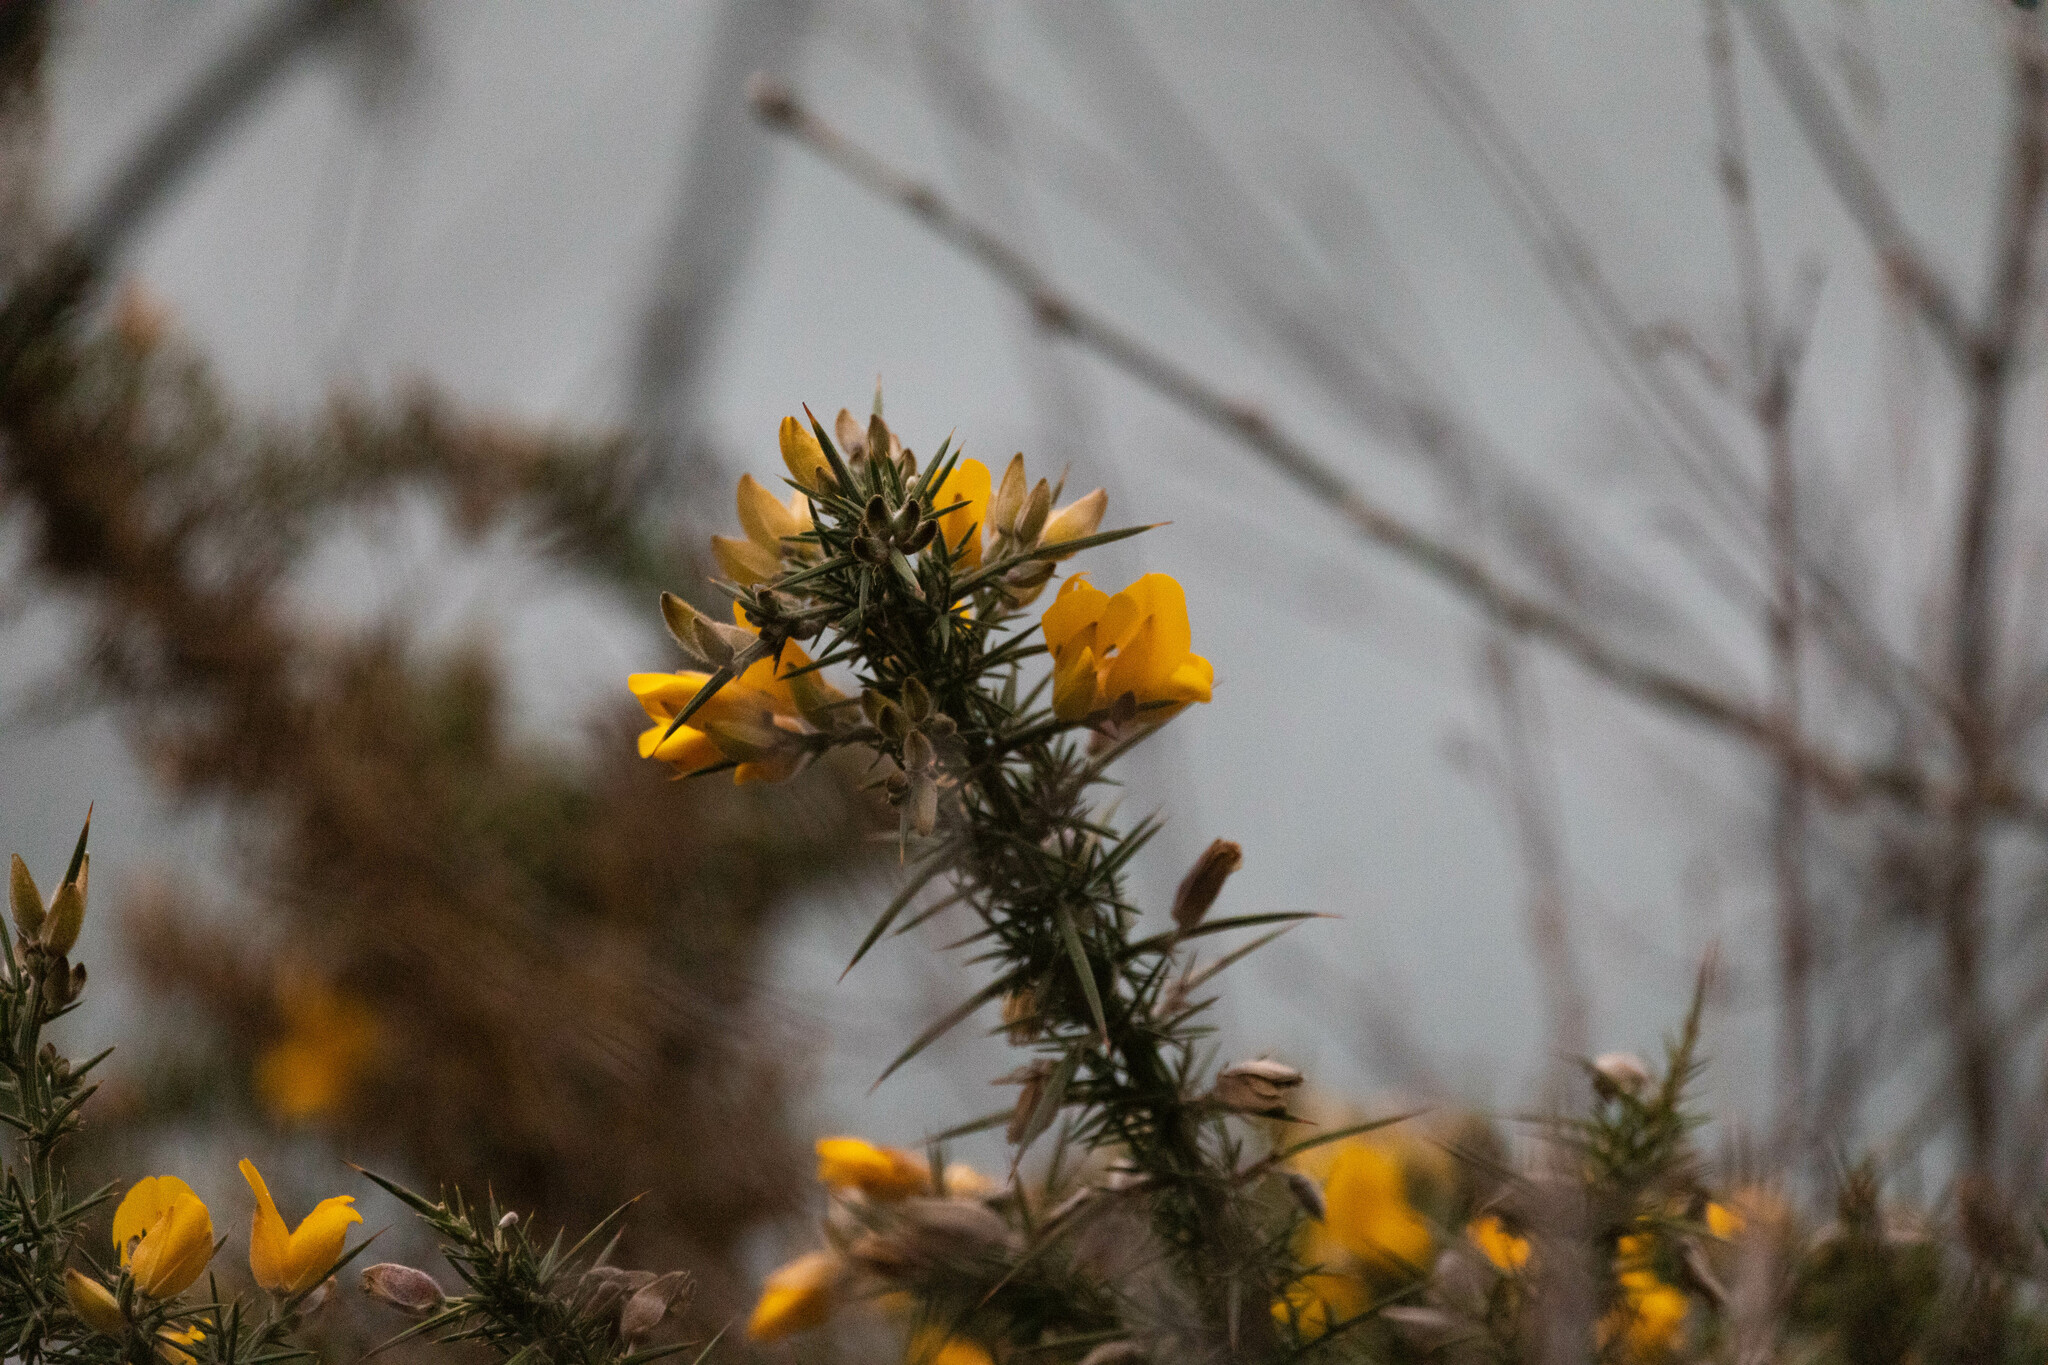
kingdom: Plantae
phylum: Tracheophyta
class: Magnoliopsida
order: Fabales
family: Fabaceae
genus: Ulex
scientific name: Ulex europaeus
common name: Common gorse
